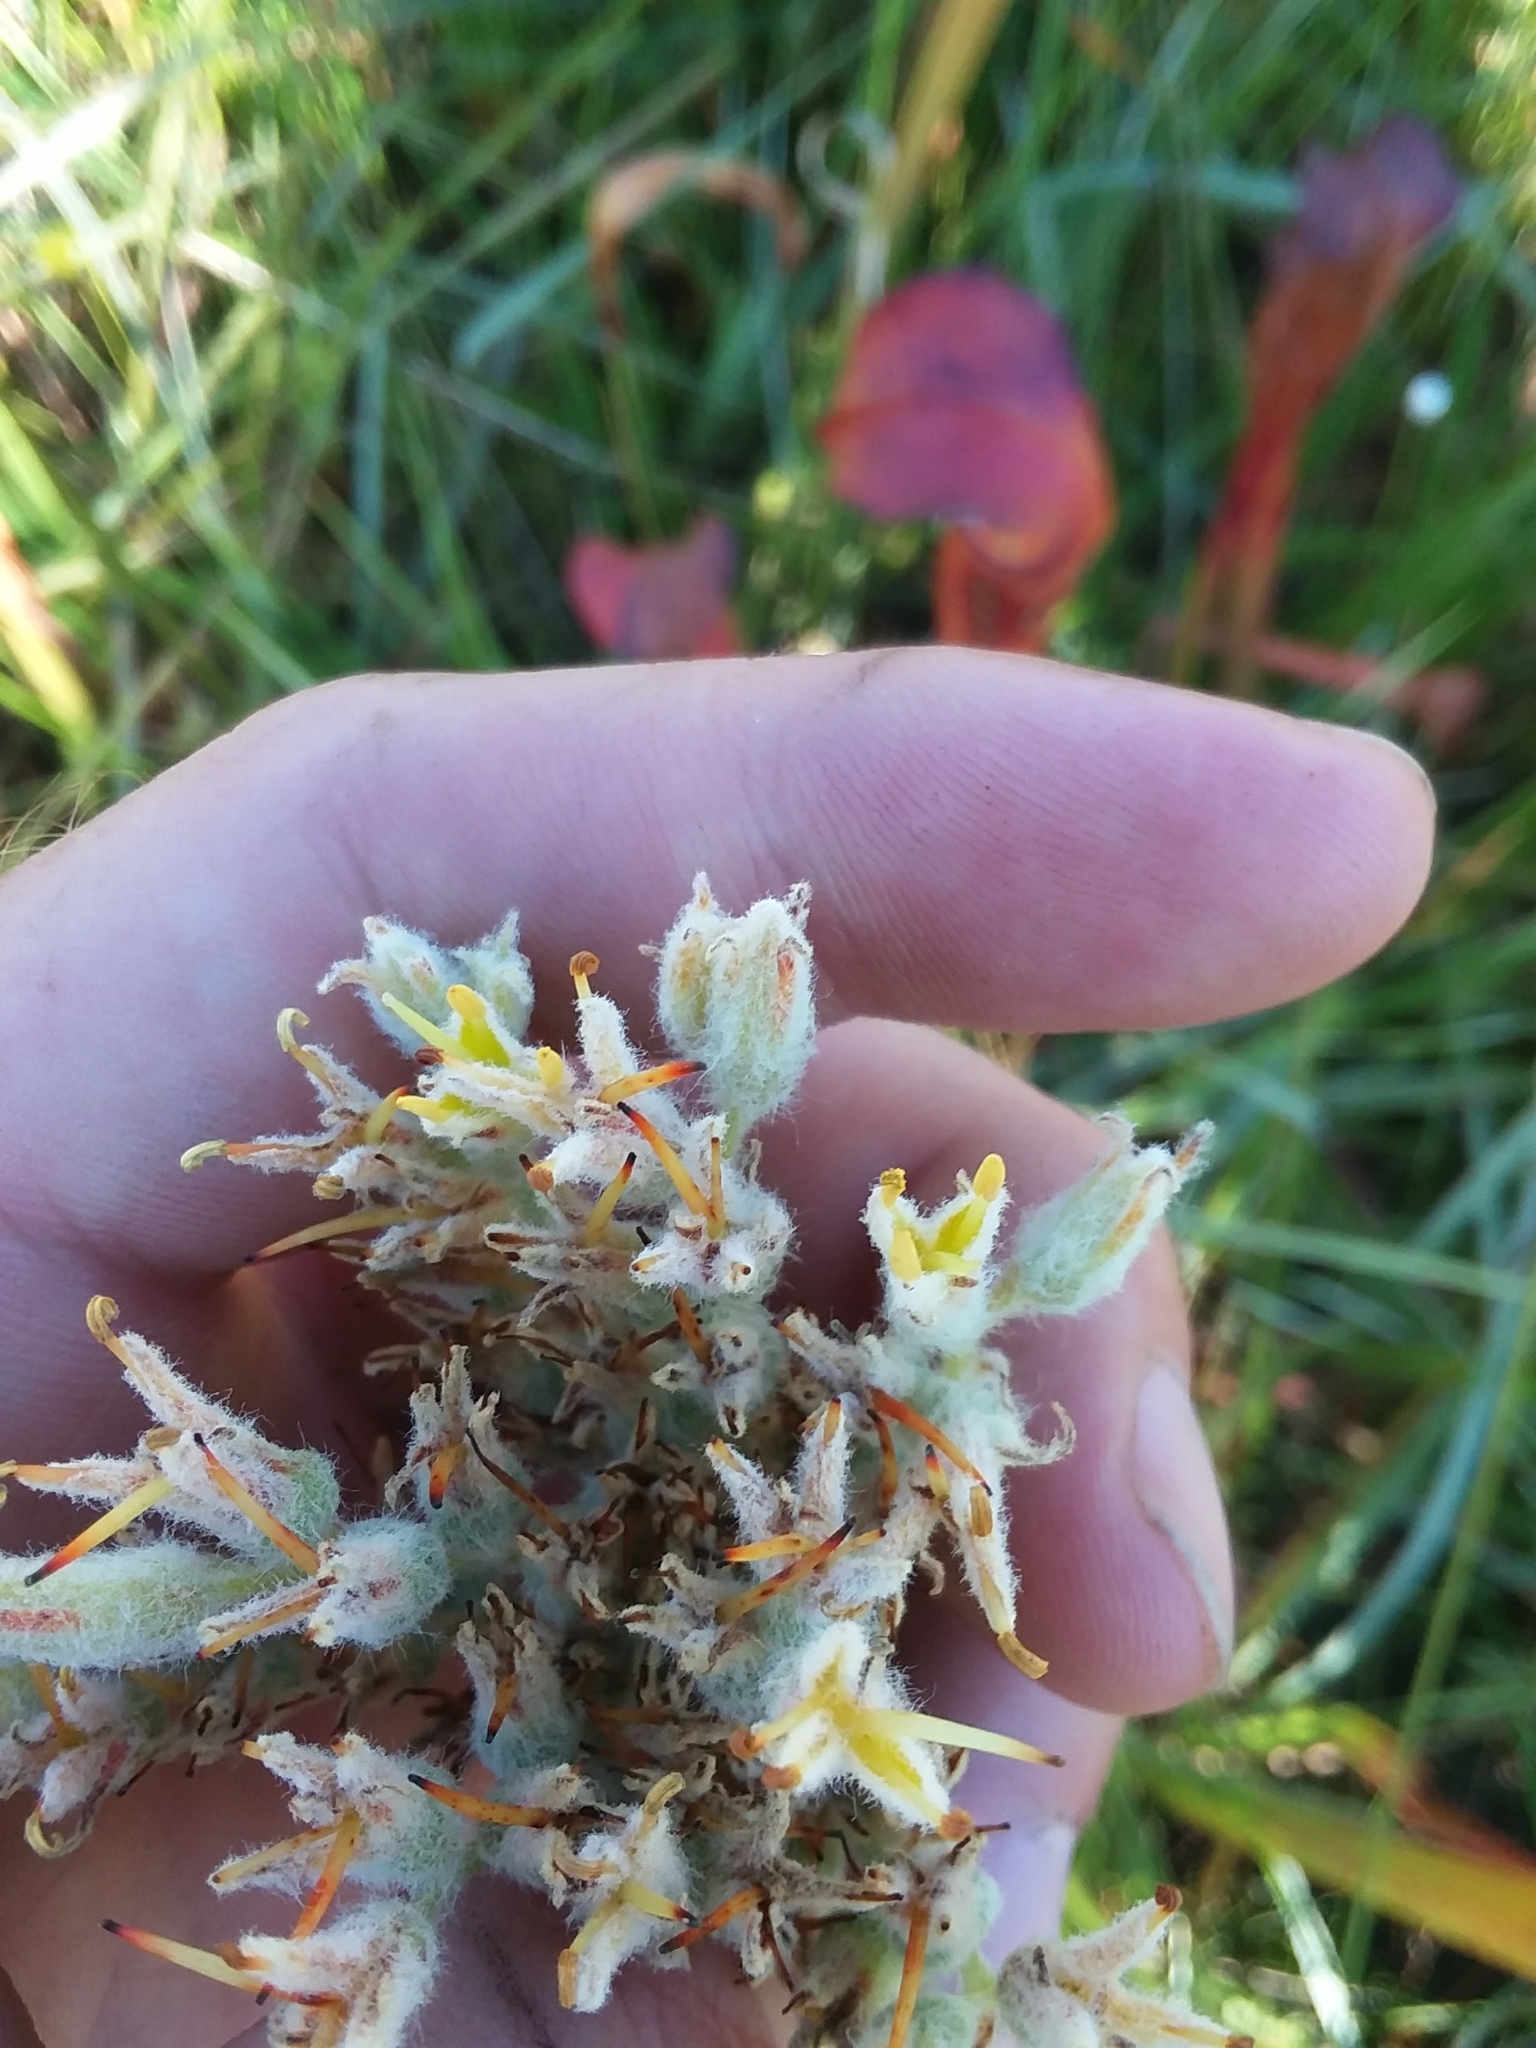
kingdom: Plantae
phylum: Tracheophyta
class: Liliopsida
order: Commelinales
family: Haemodoraceae
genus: Lachnanthes
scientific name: Lachnanthes caroliana
